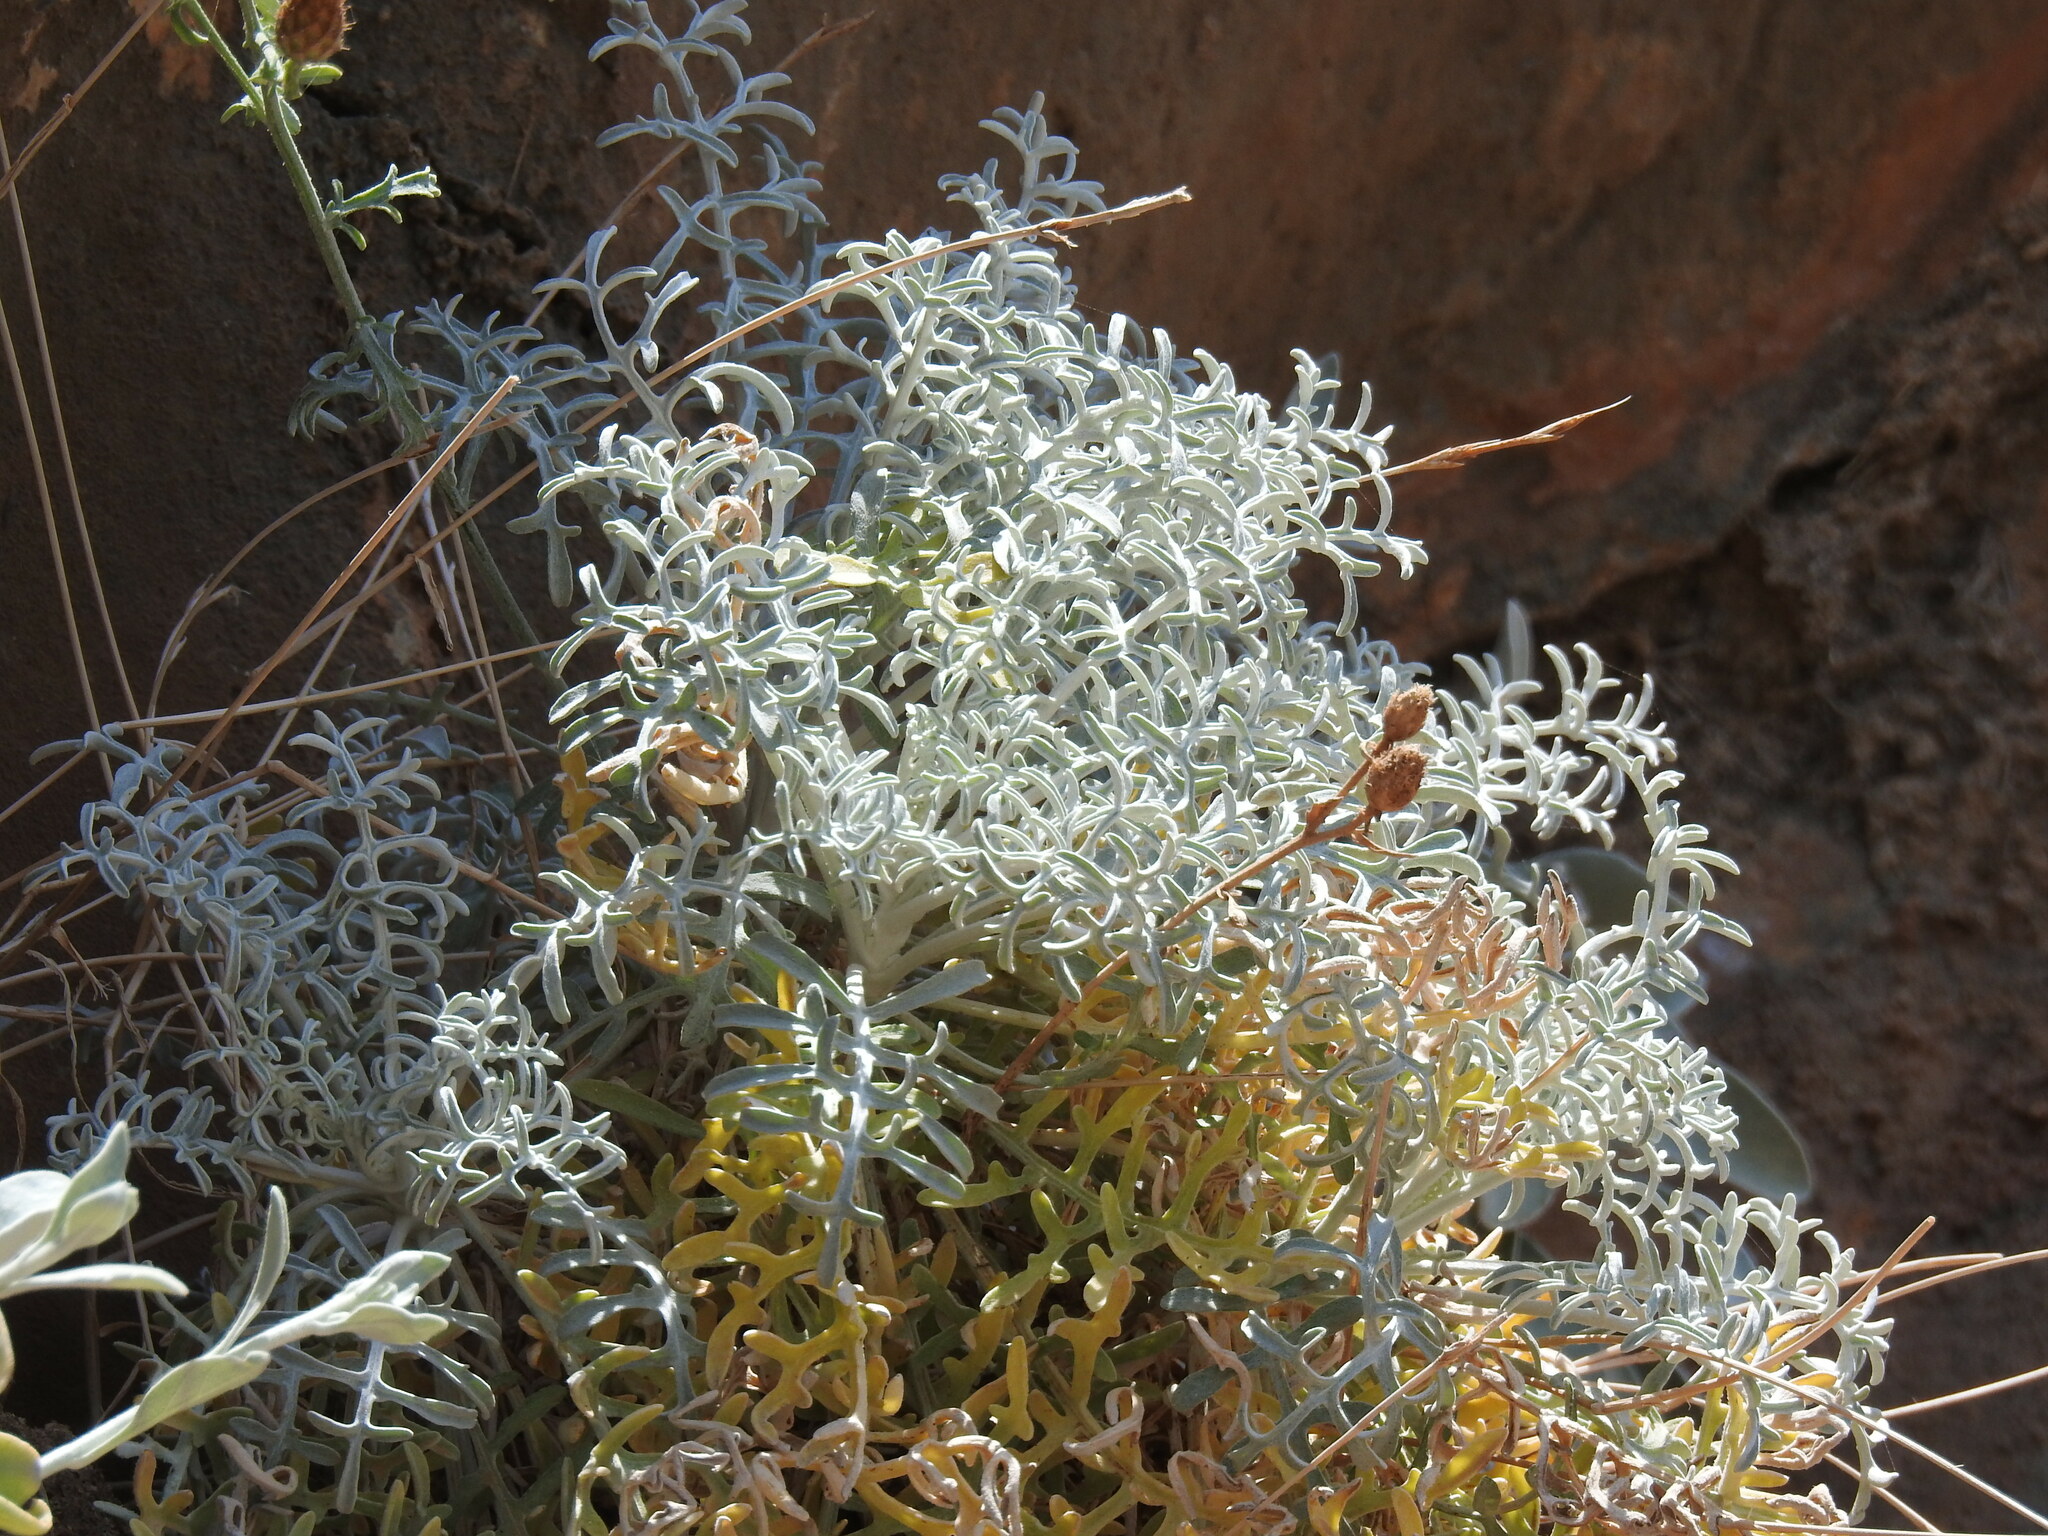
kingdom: Plantae
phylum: Tracheophyta
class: Magnoliopsida
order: Asterales
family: Asteraceae
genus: Centaurea
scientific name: Centaurea argentea
